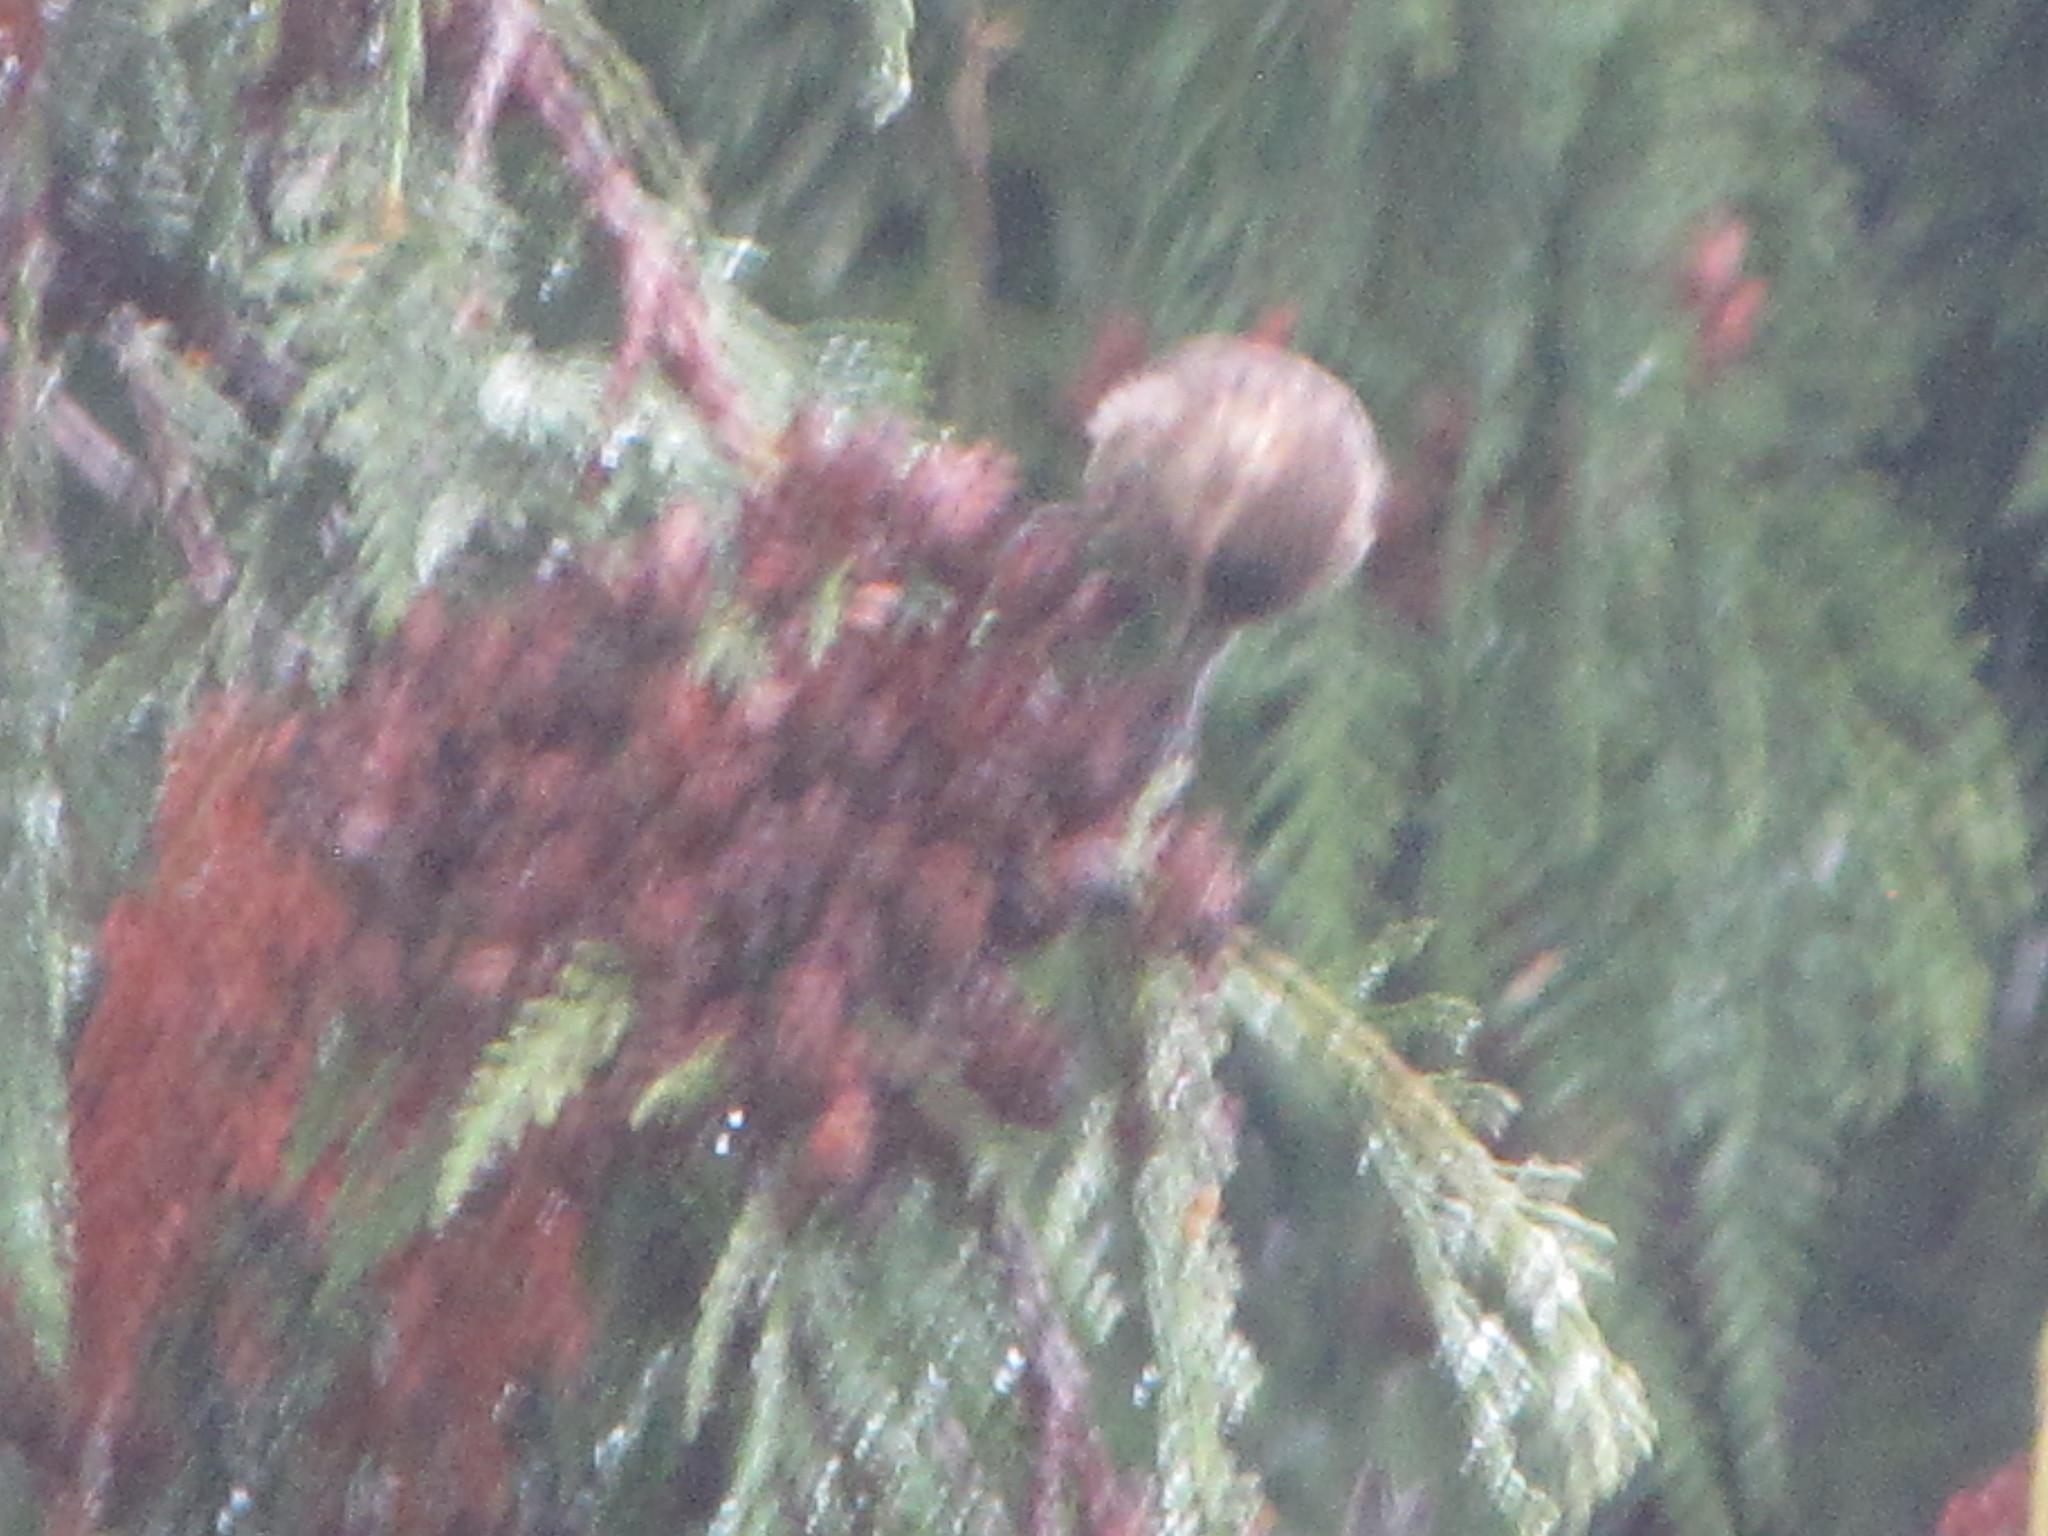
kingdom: Animalia
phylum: Chordata
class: Aves
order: Passeriformes
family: Fringillidae
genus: Spinus
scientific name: Spinus pinus
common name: Pine siskin
